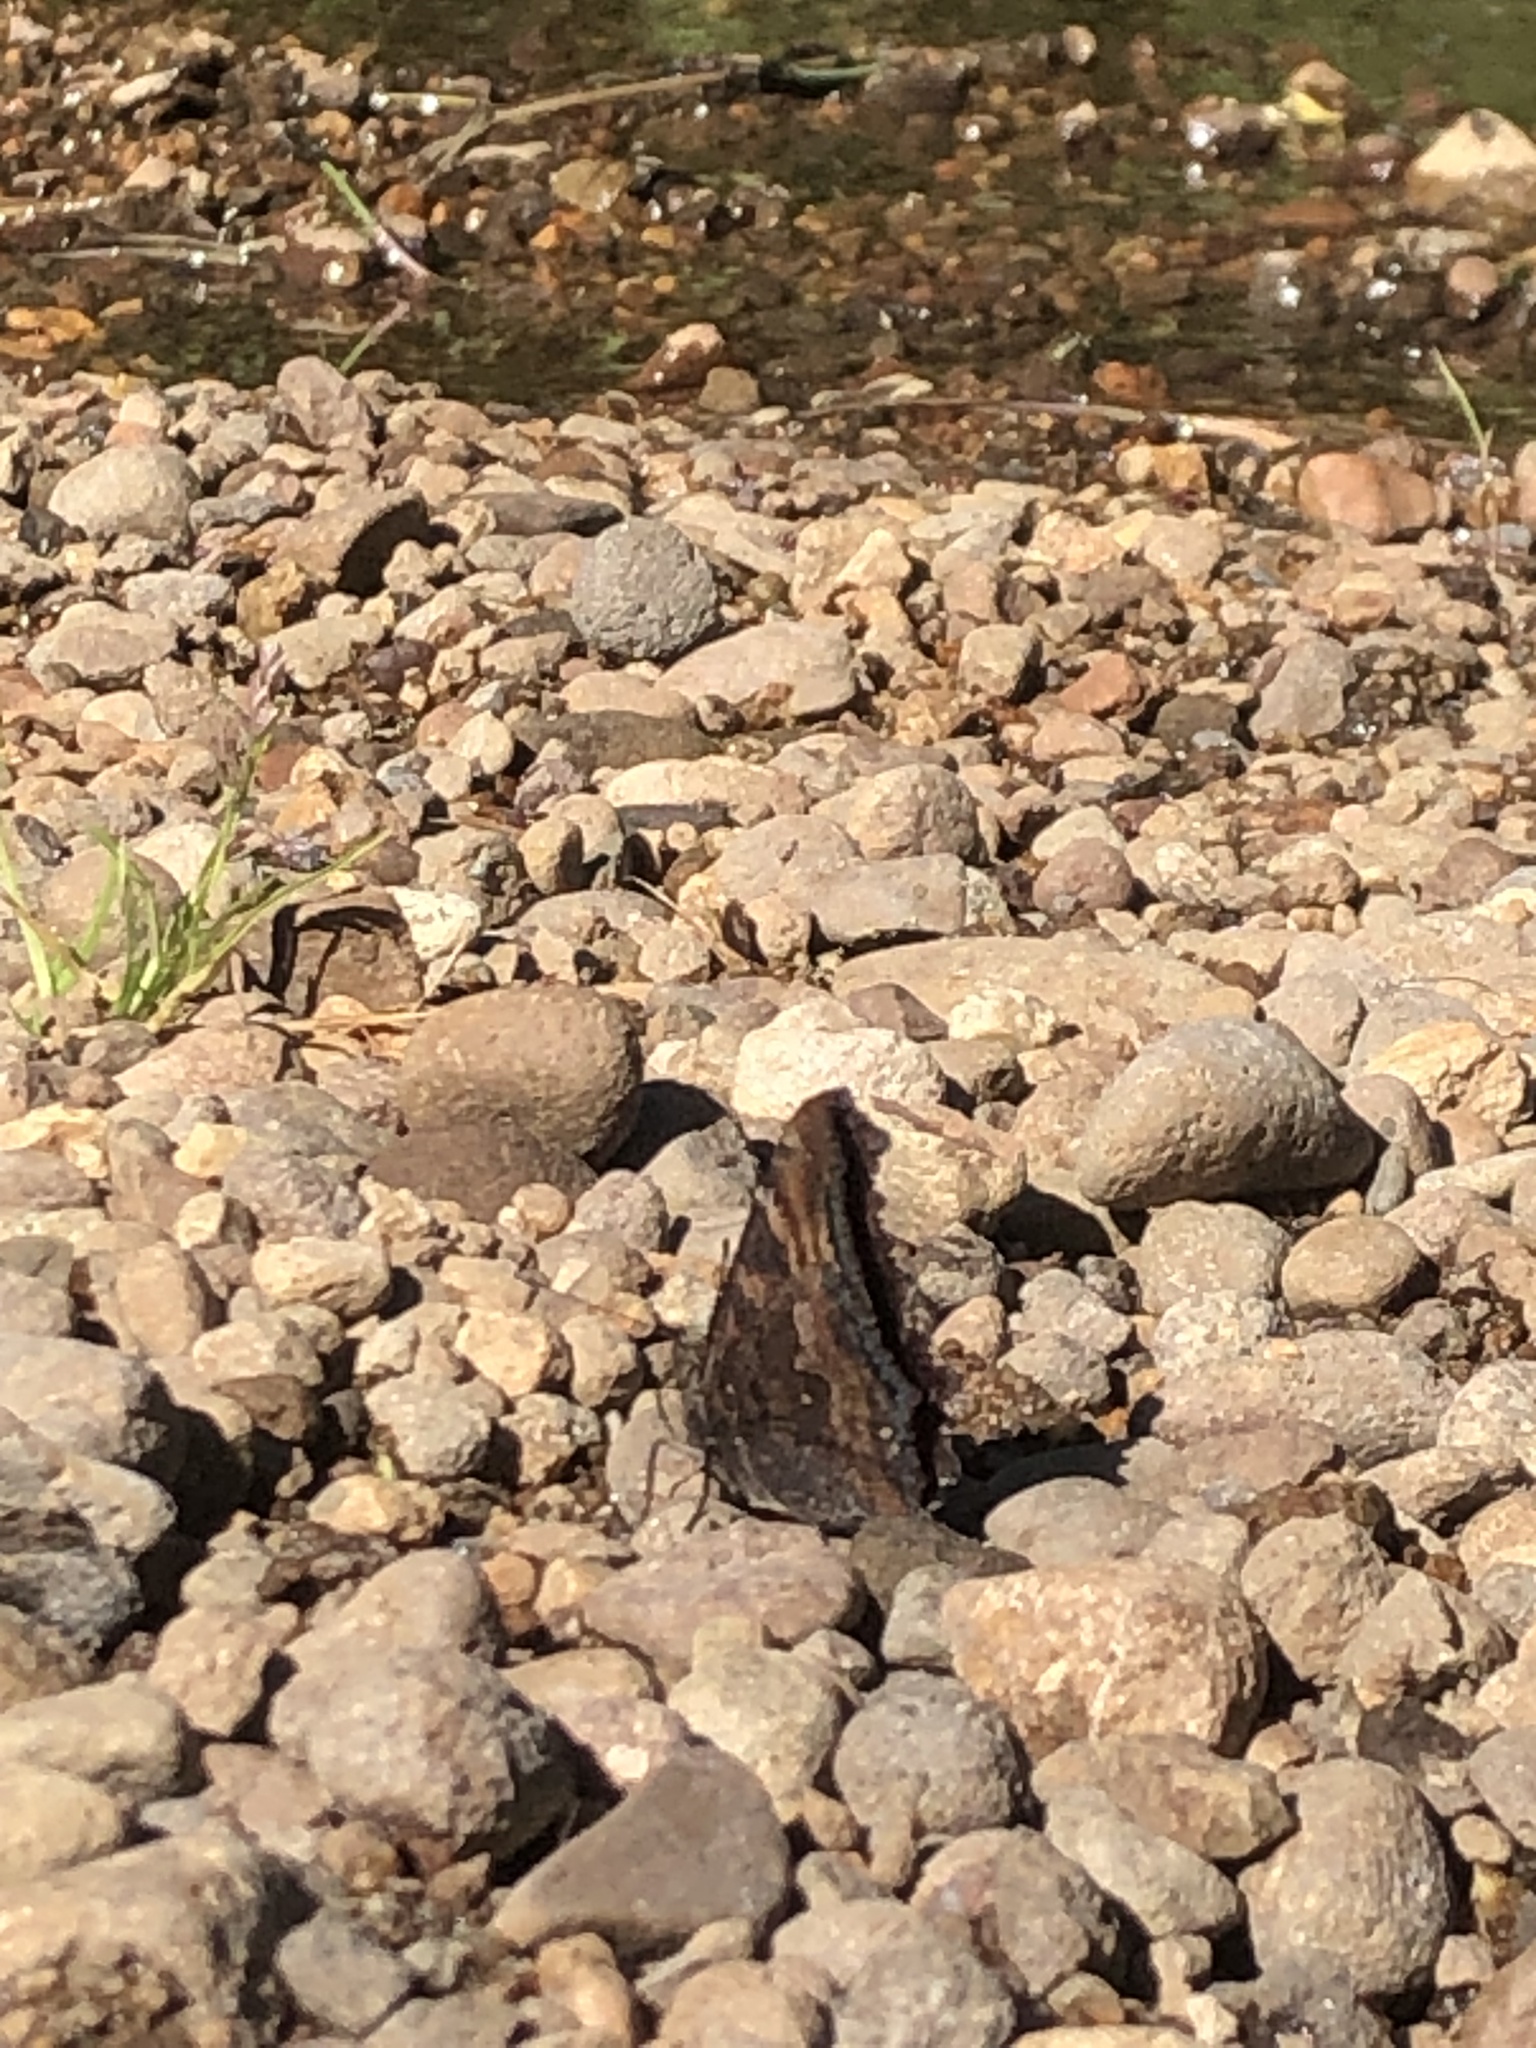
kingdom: Animalia
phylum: Arthropoda
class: Insecta
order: Lepidoptera
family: Nymphalidae
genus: Nymphalis
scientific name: Nymphalis californica
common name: California tortoiseshell
